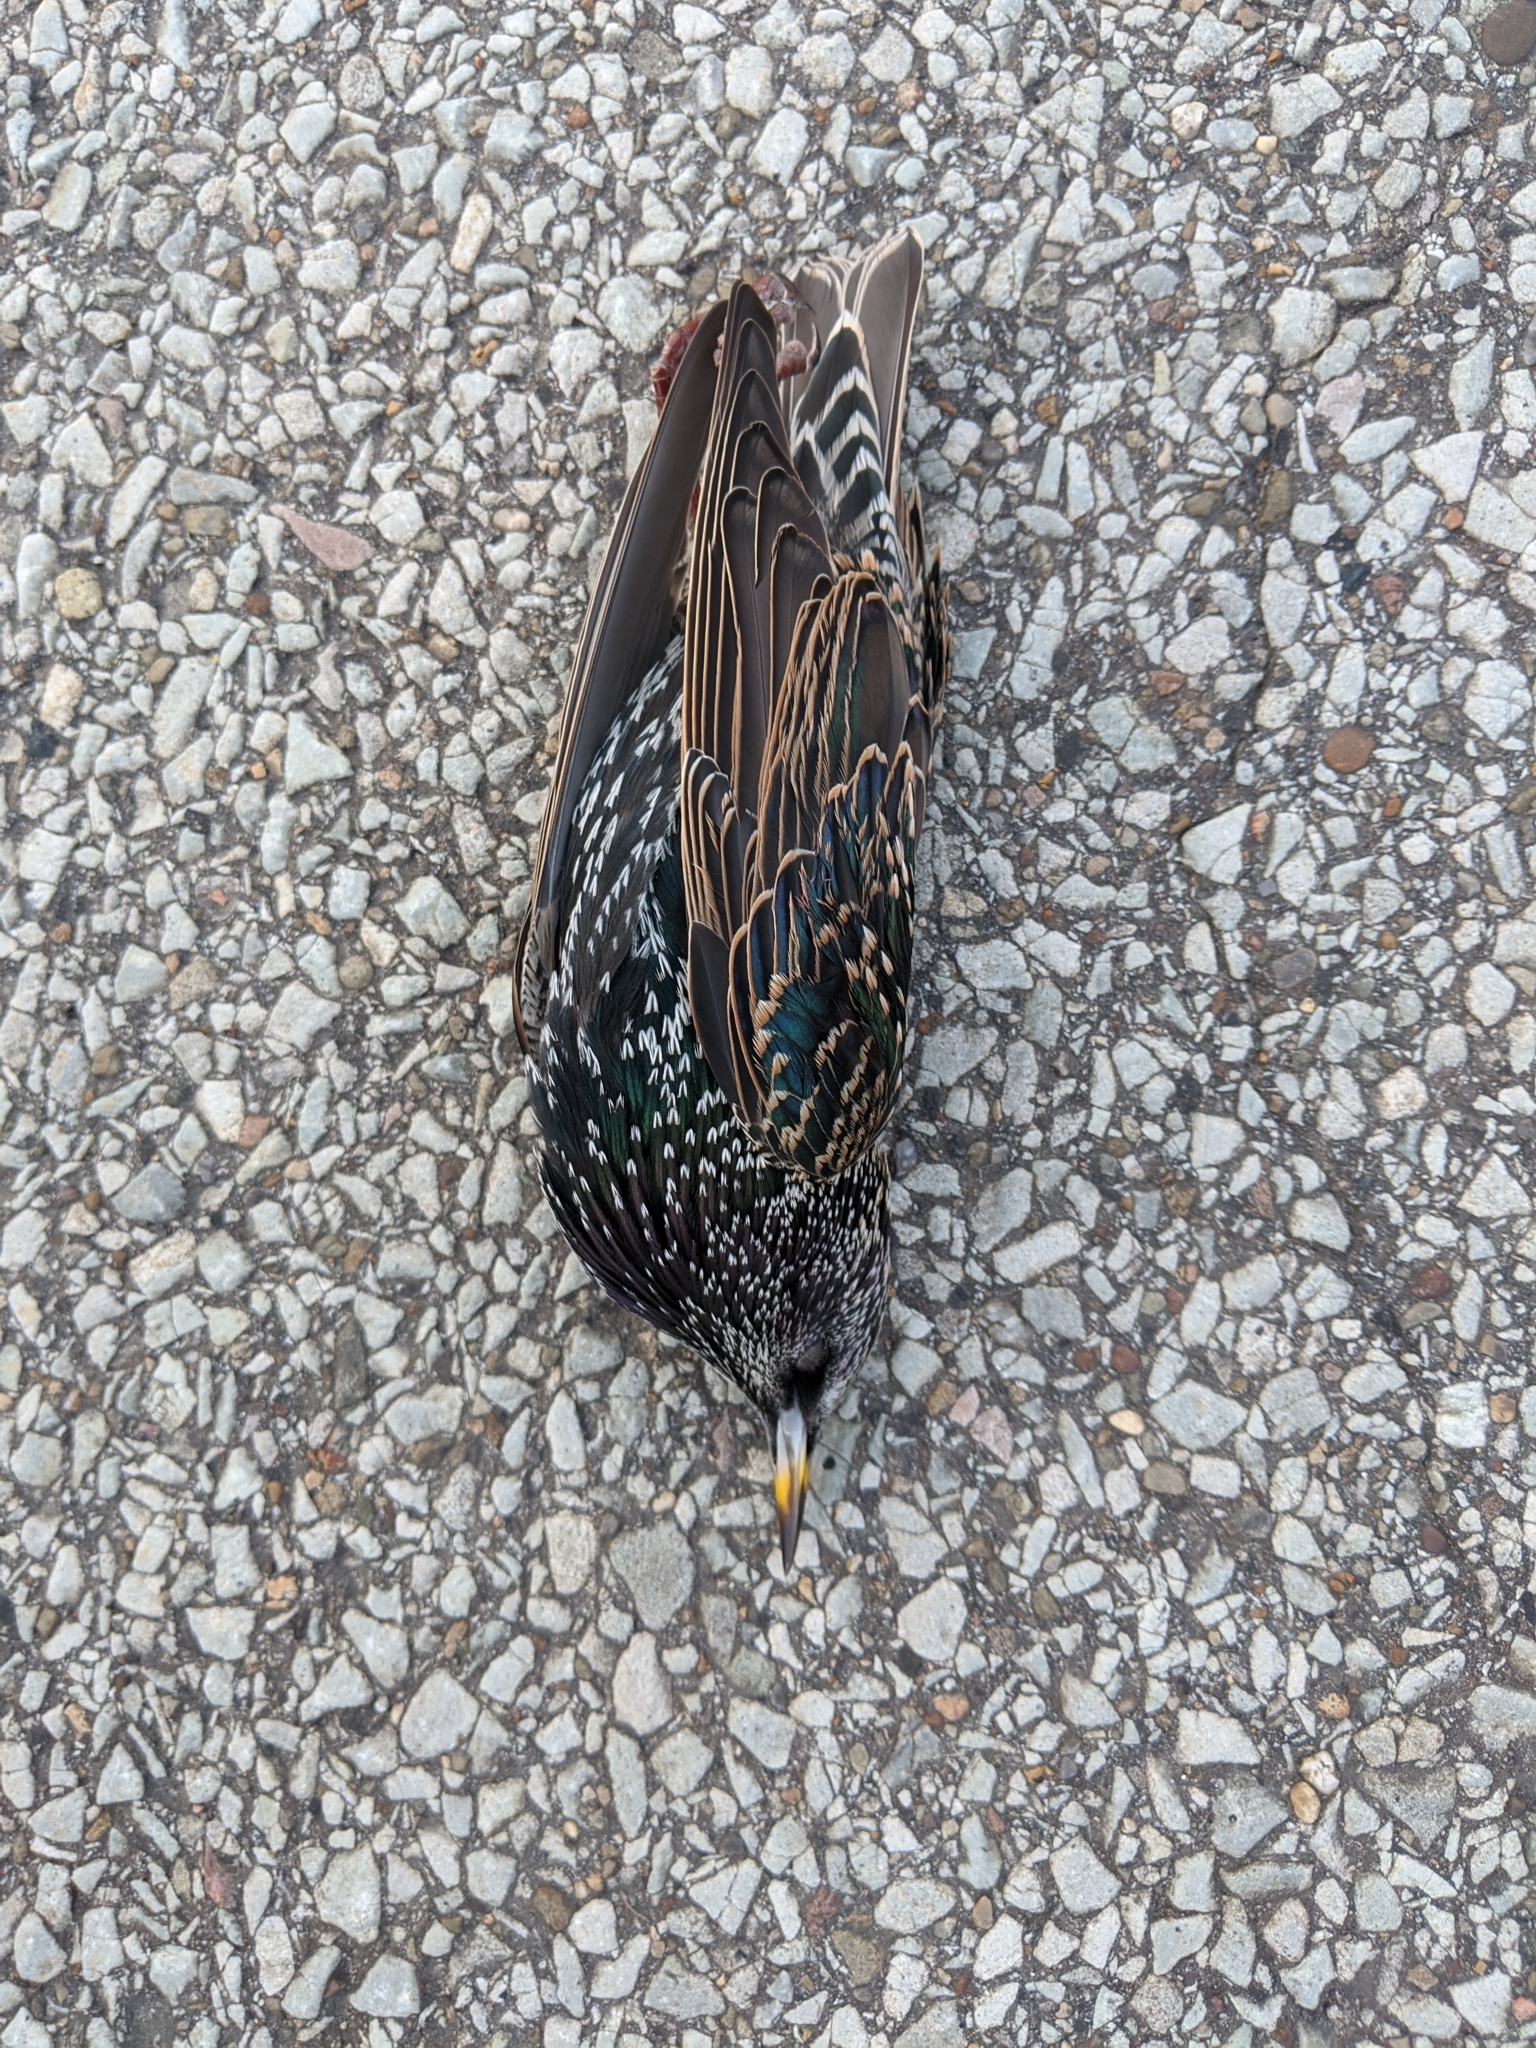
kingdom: Animalia
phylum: Chordata
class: Aves
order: Passeriformes
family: Sturnidae
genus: Sturnus
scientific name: Sturnus vulgaris
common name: Common starling
